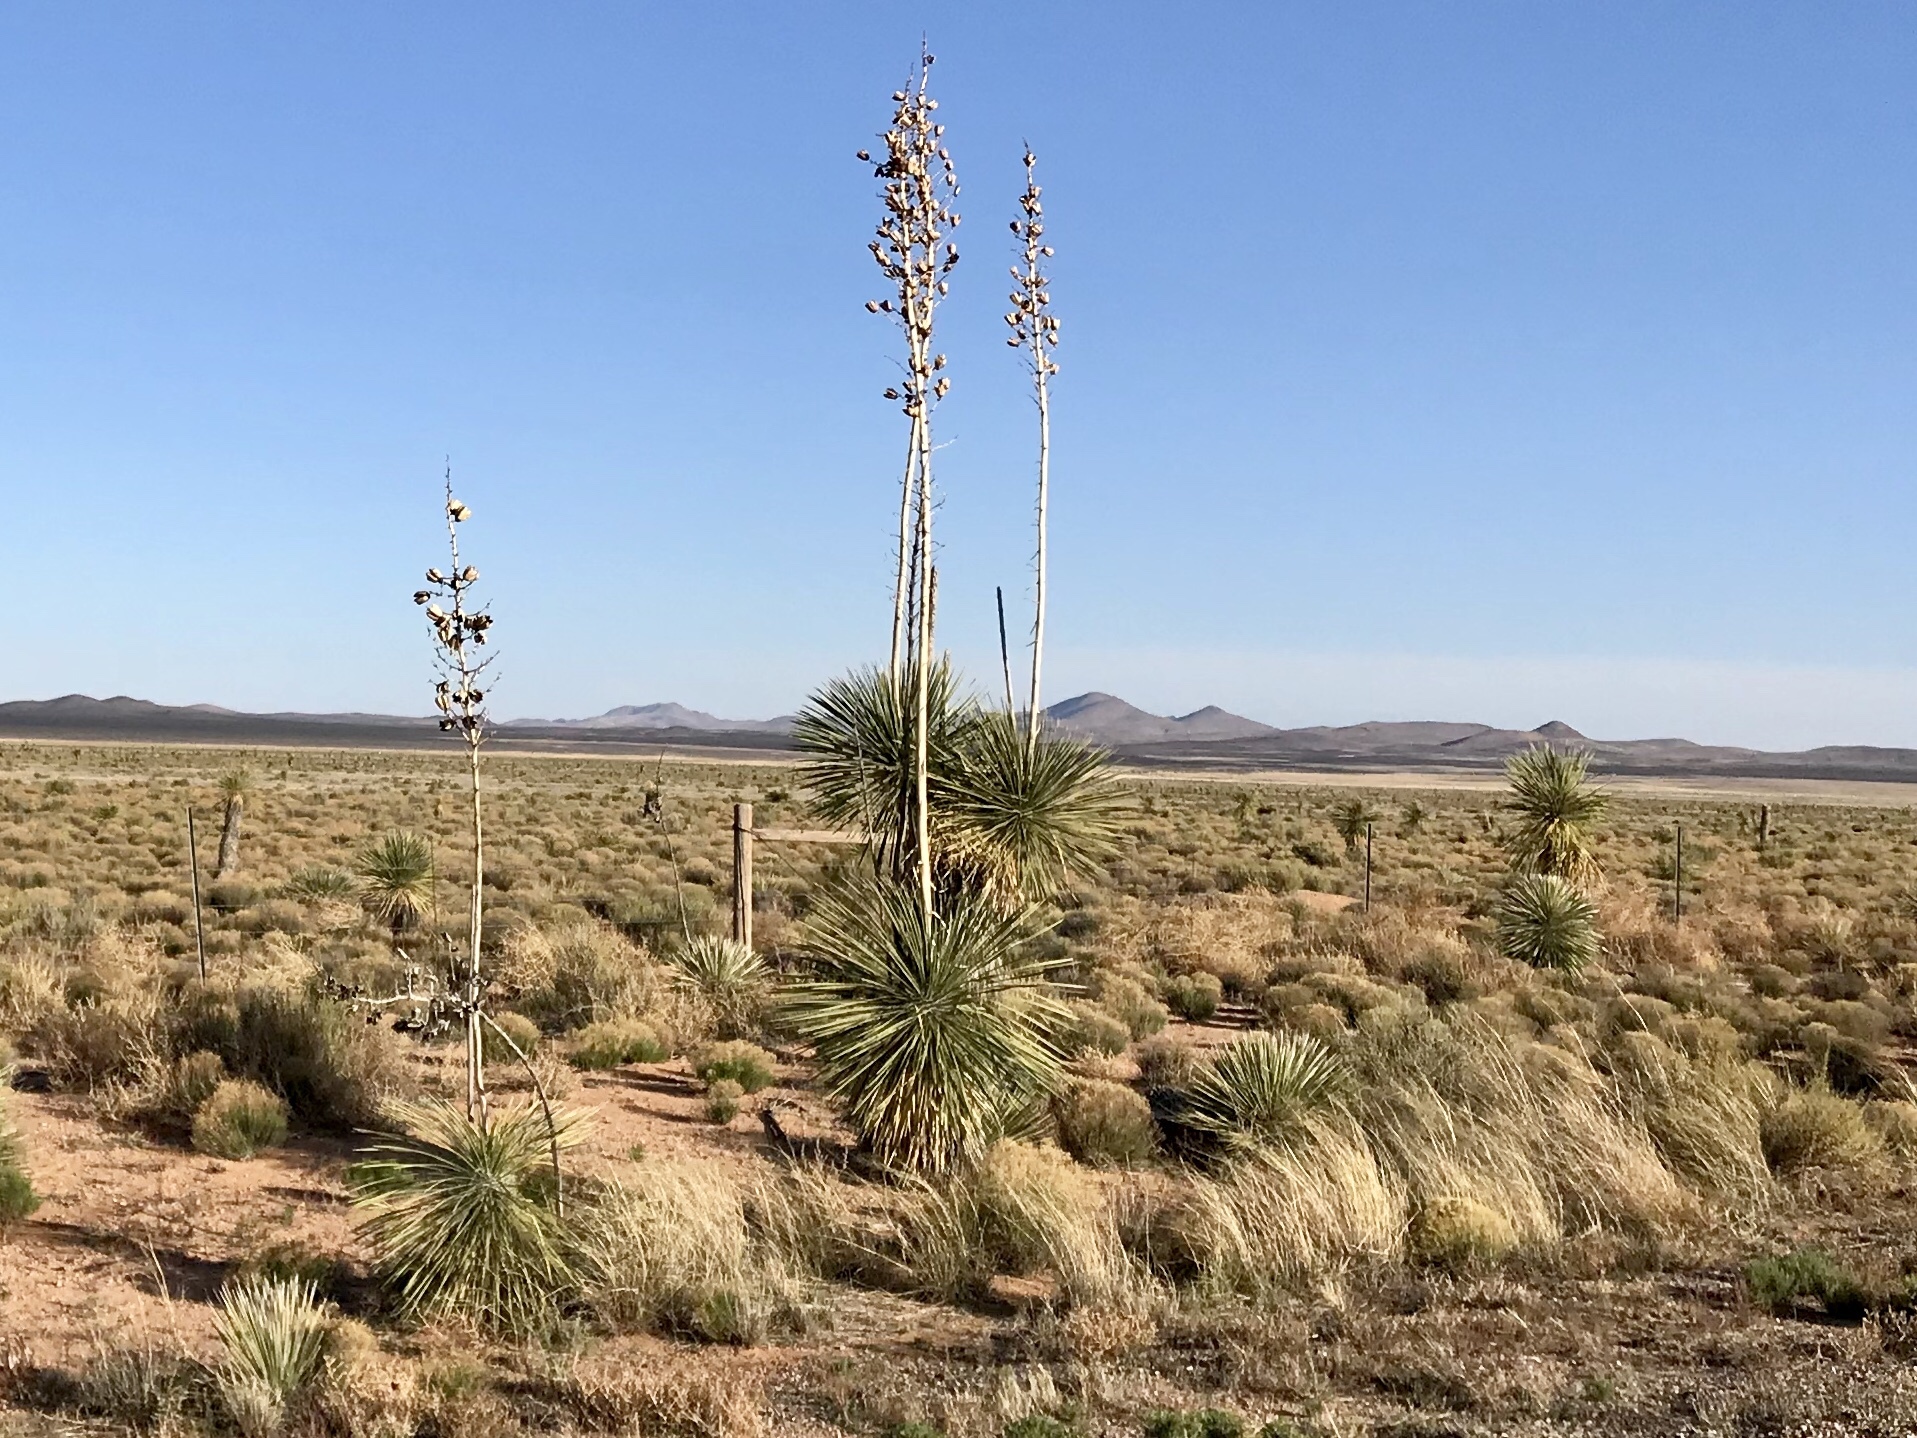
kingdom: Plantae
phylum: Tracheophyta
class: Liliopsida
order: Asparagales
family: Asparagaceae
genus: Yucca
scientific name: Yucca elata
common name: Palmella
